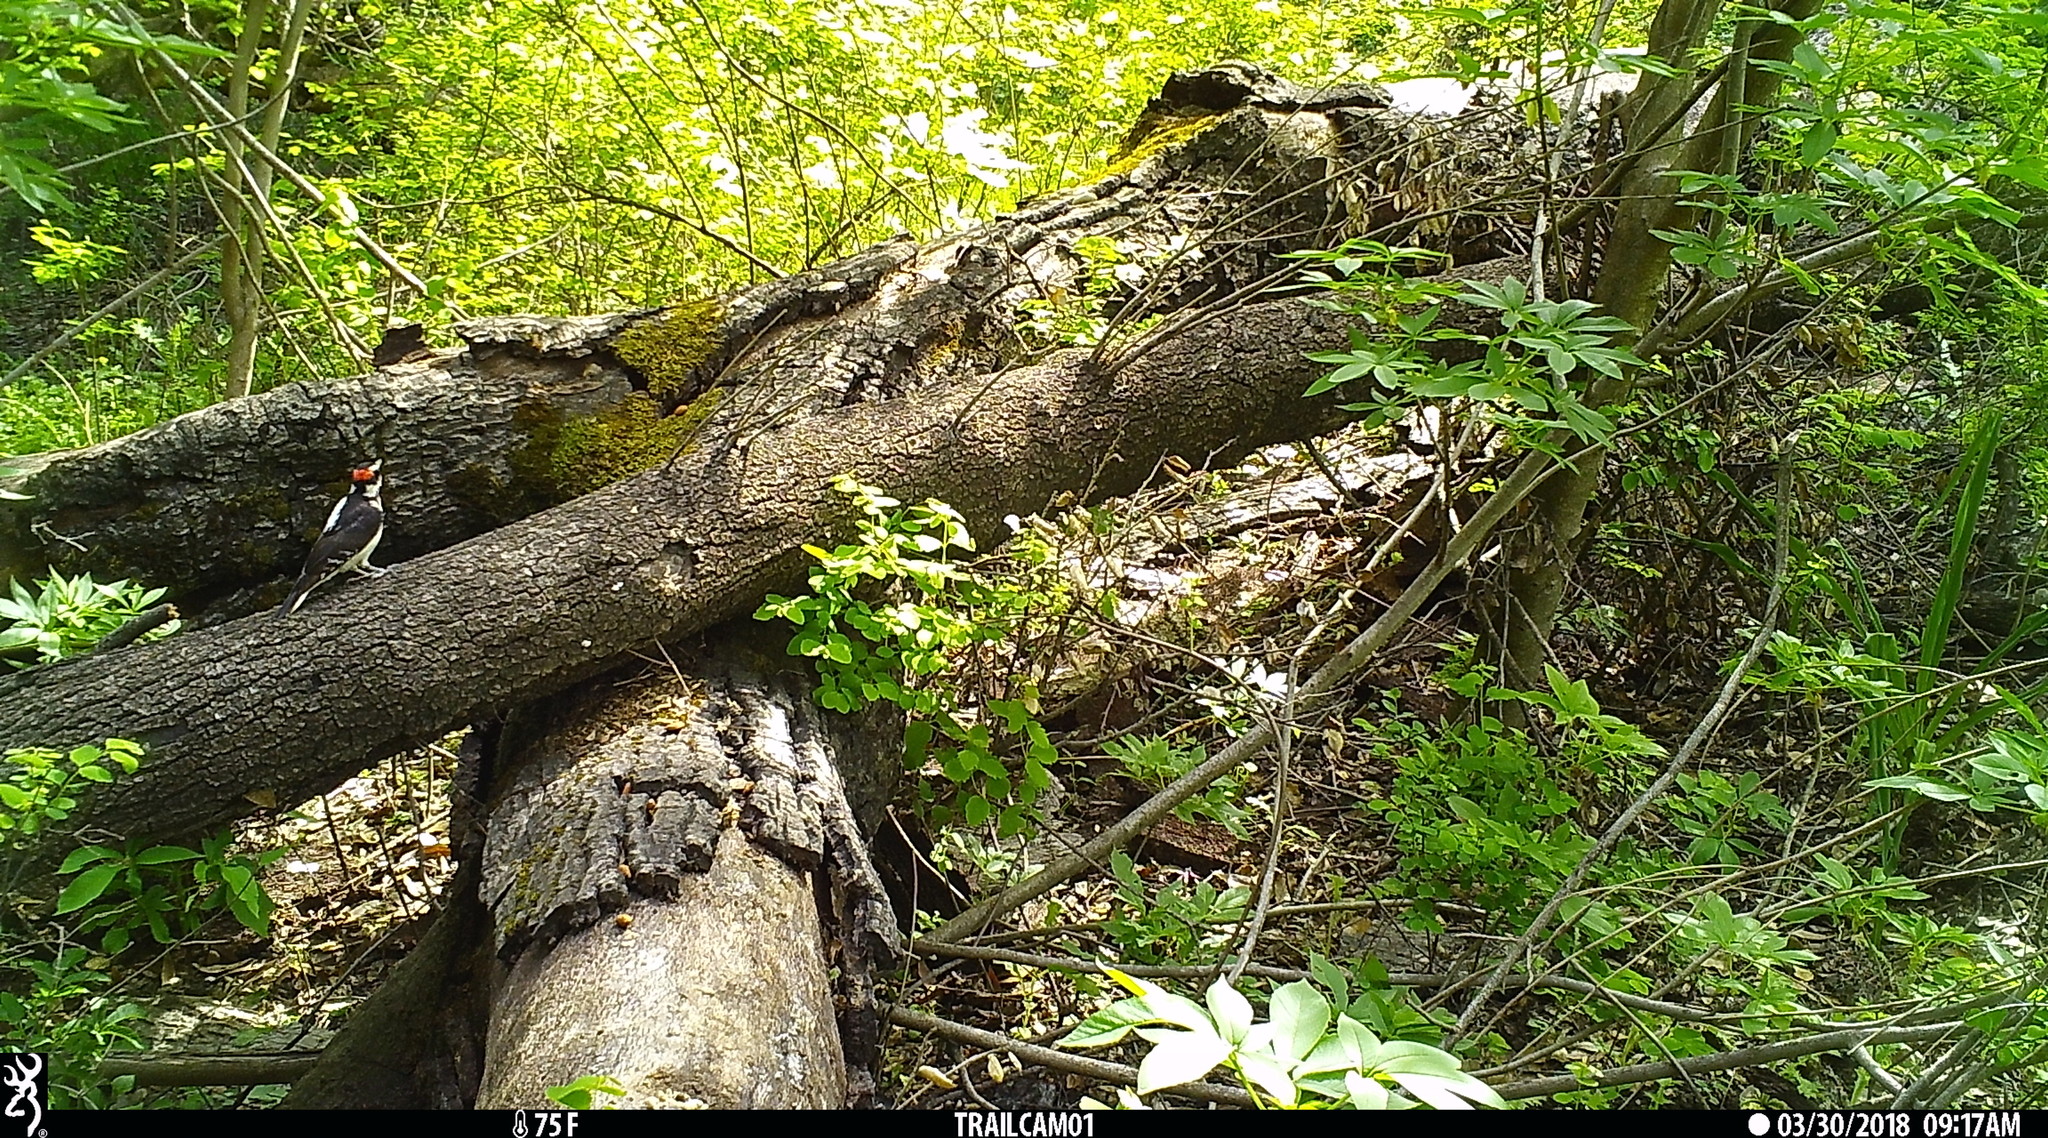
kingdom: Animalia
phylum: Chordata
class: Aves
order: Piciformes
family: Picidae
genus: Leuconotopicus
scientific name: Leuconotopicus villosus
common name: Hairy woodpecker
